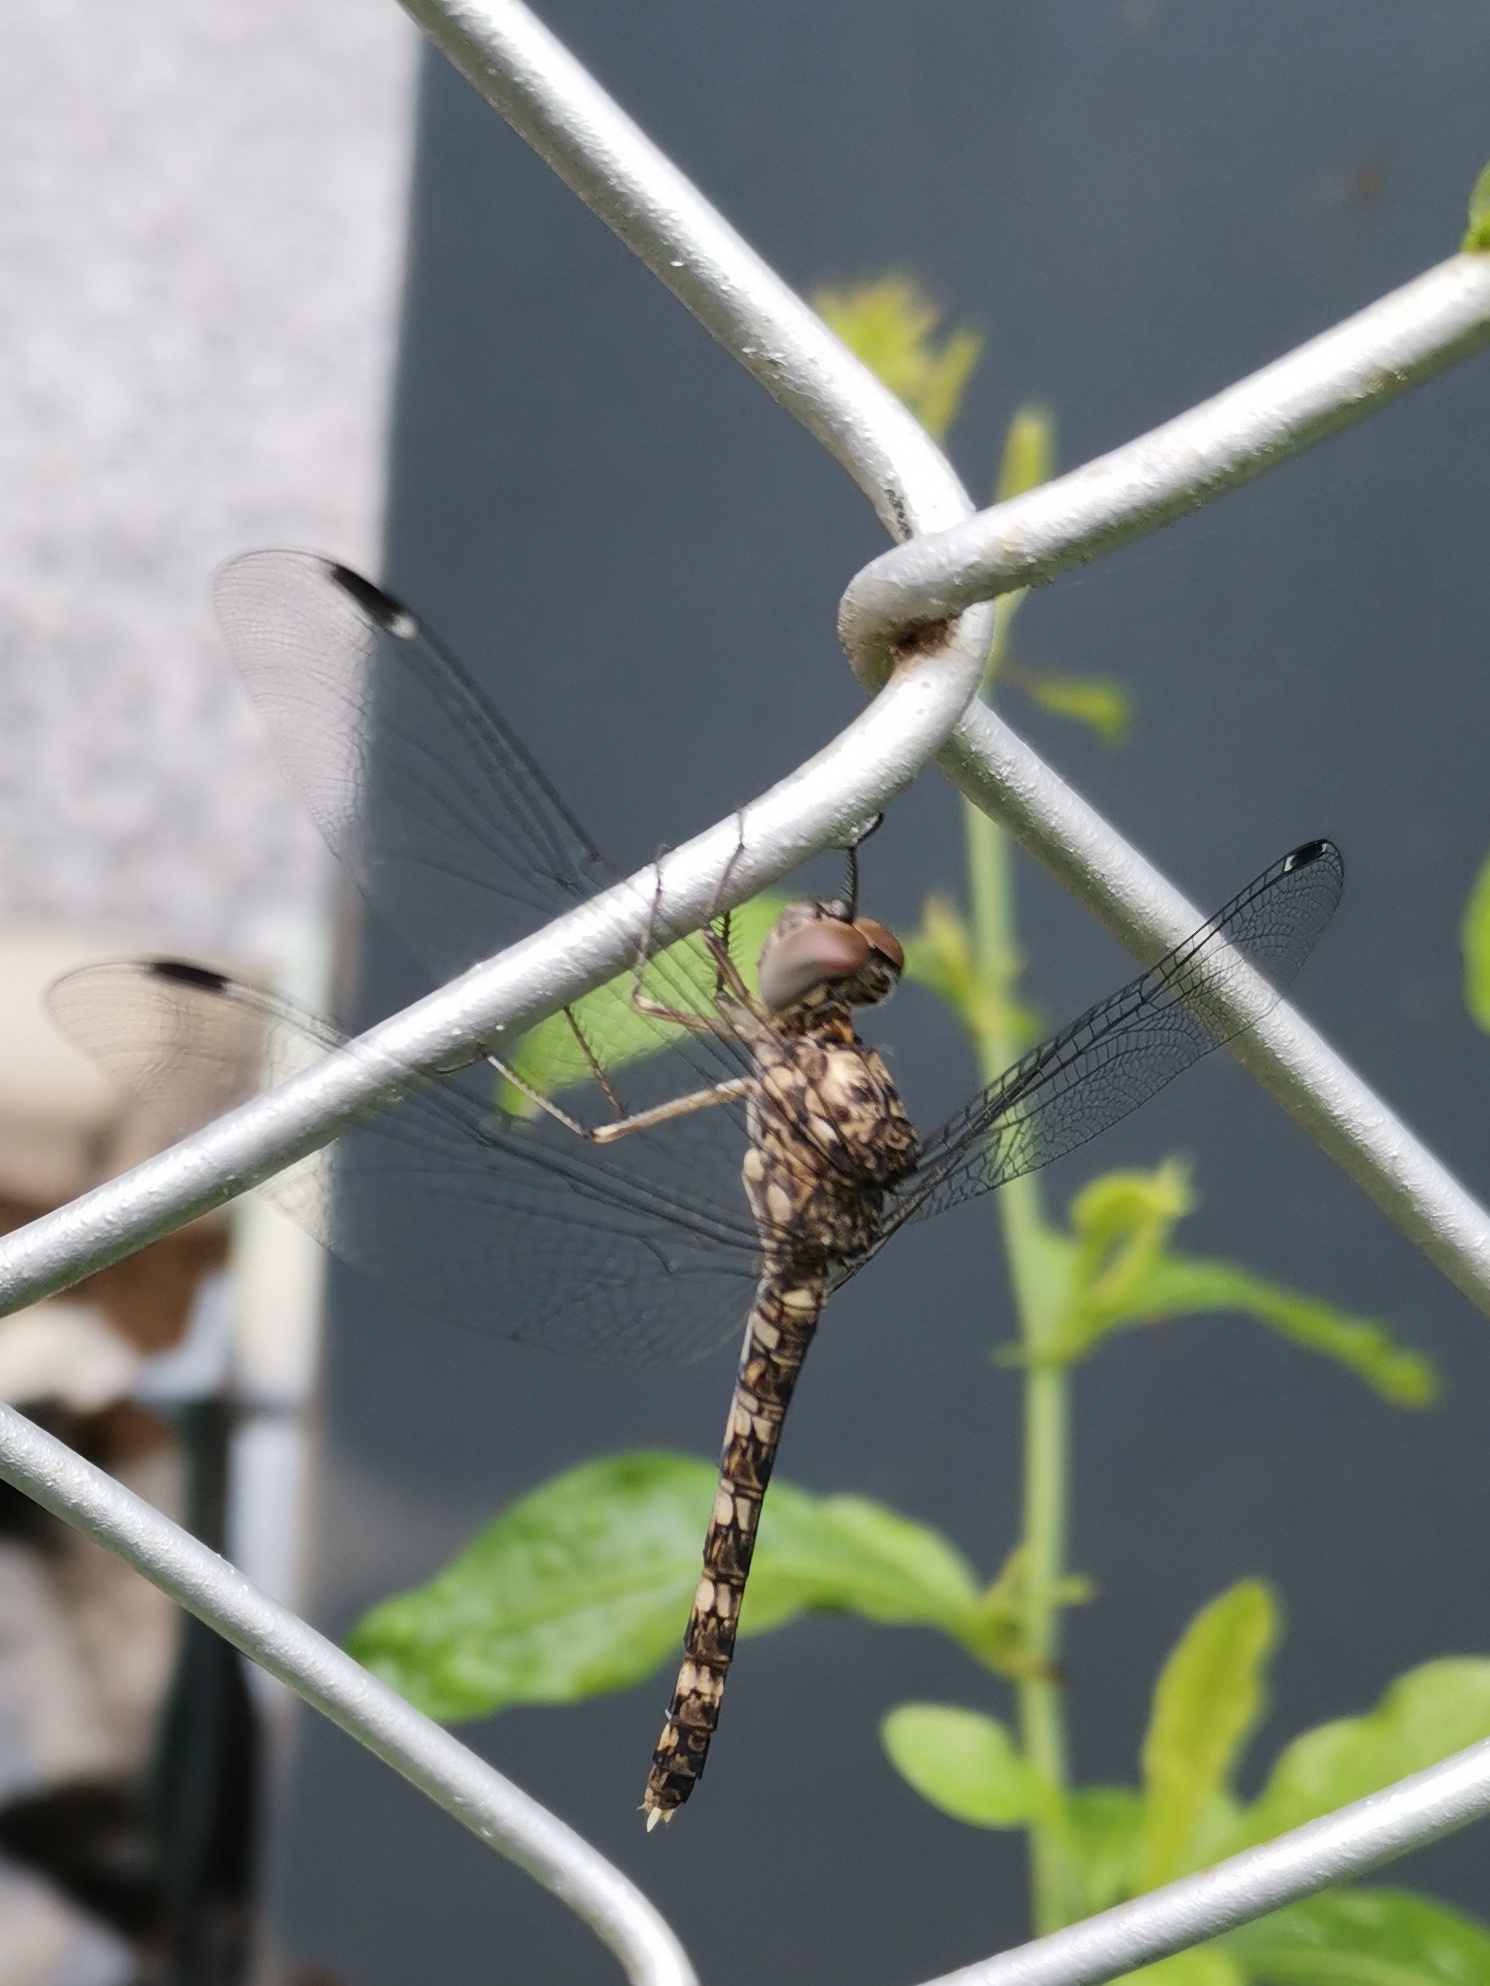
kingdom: Animalia
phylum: Arthropoda
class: Insecta
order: Odonata
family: Libellulidae
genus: Bradinopyga
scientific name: Bradinopyga geminata
